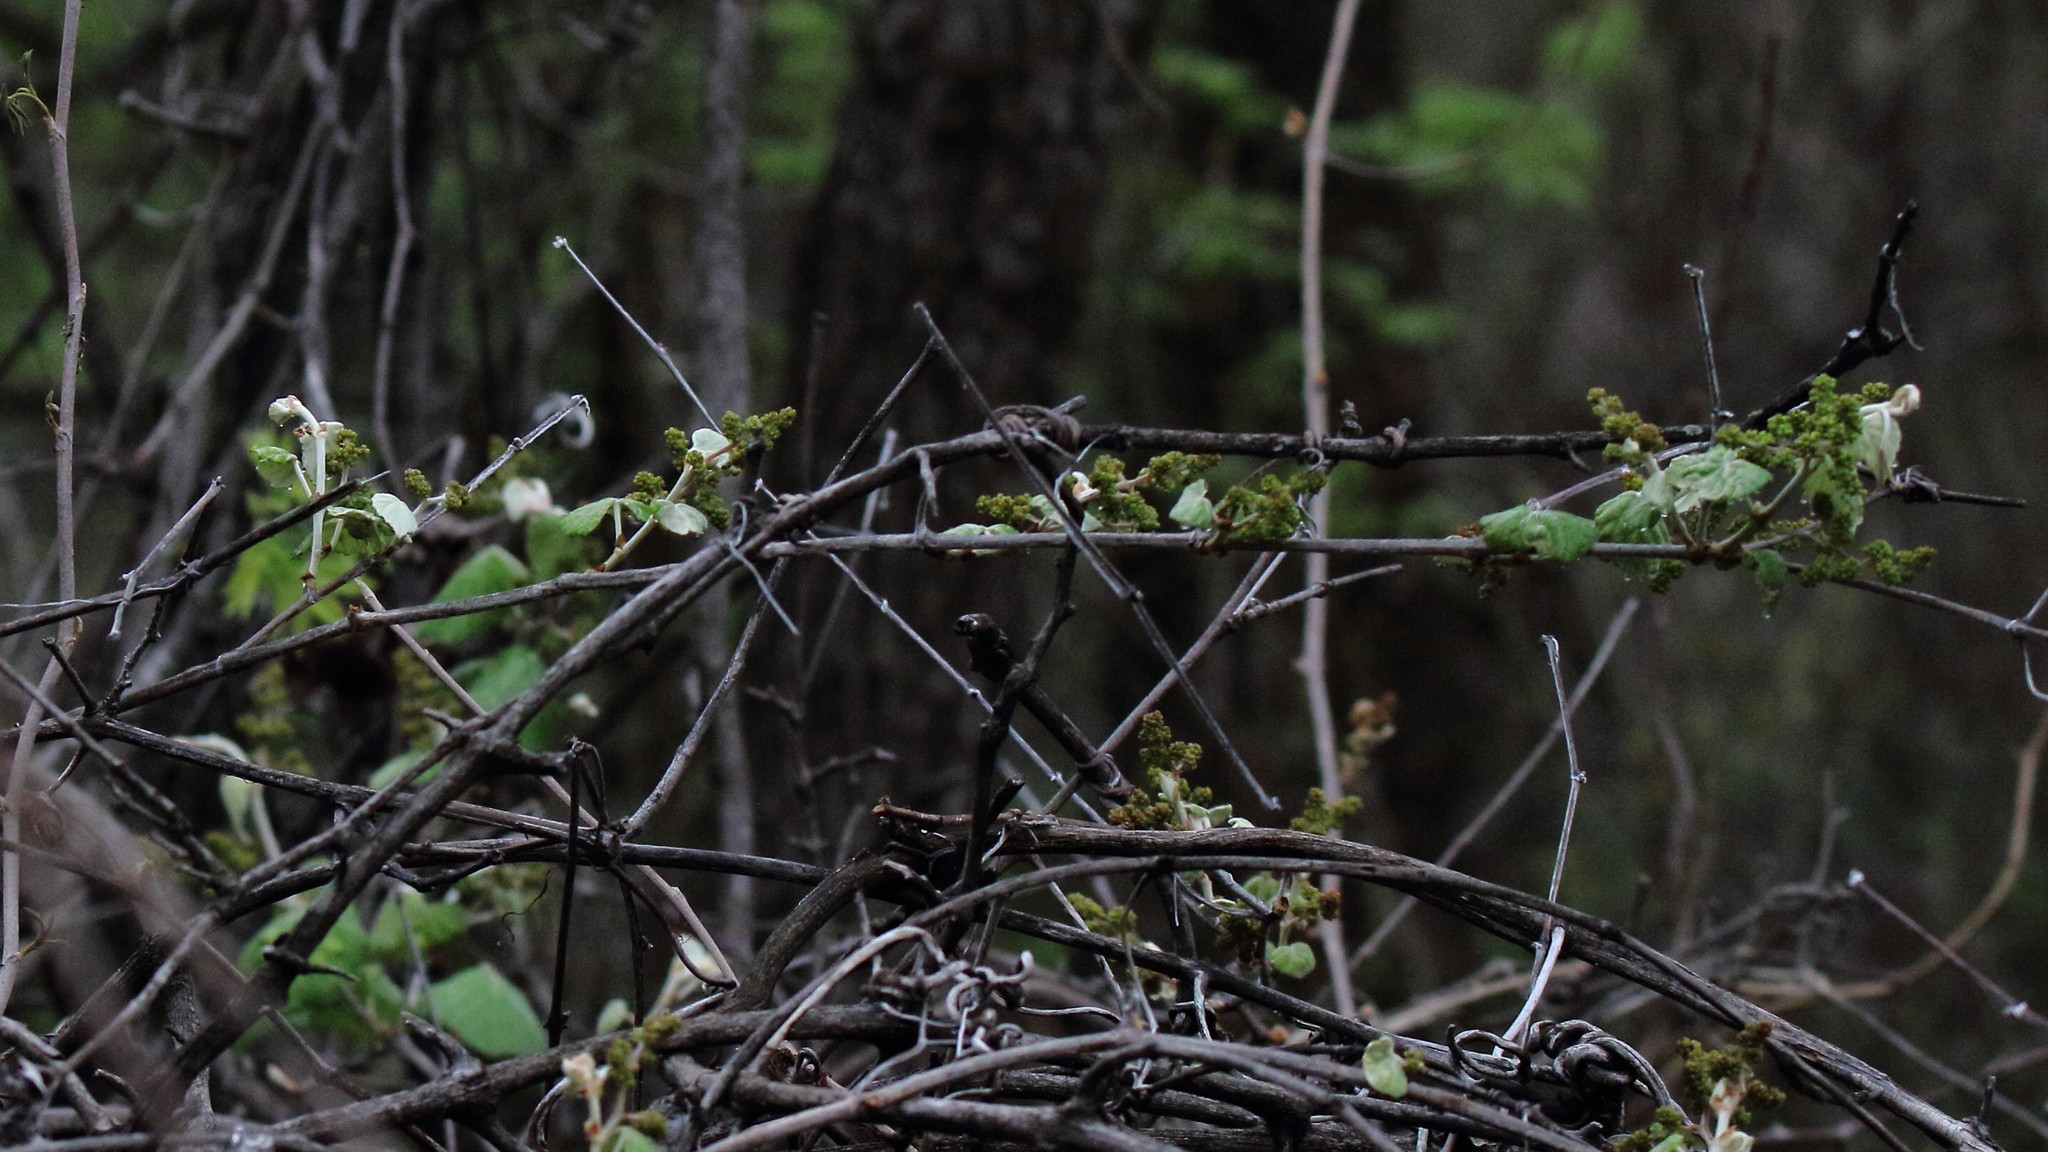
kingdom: Plantae
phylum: Tracheophyta
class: Magnoliopsida
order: Vitales
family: Vitaceae
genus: Vitis
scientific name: Vitis mustangensis
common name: Mustang grape
